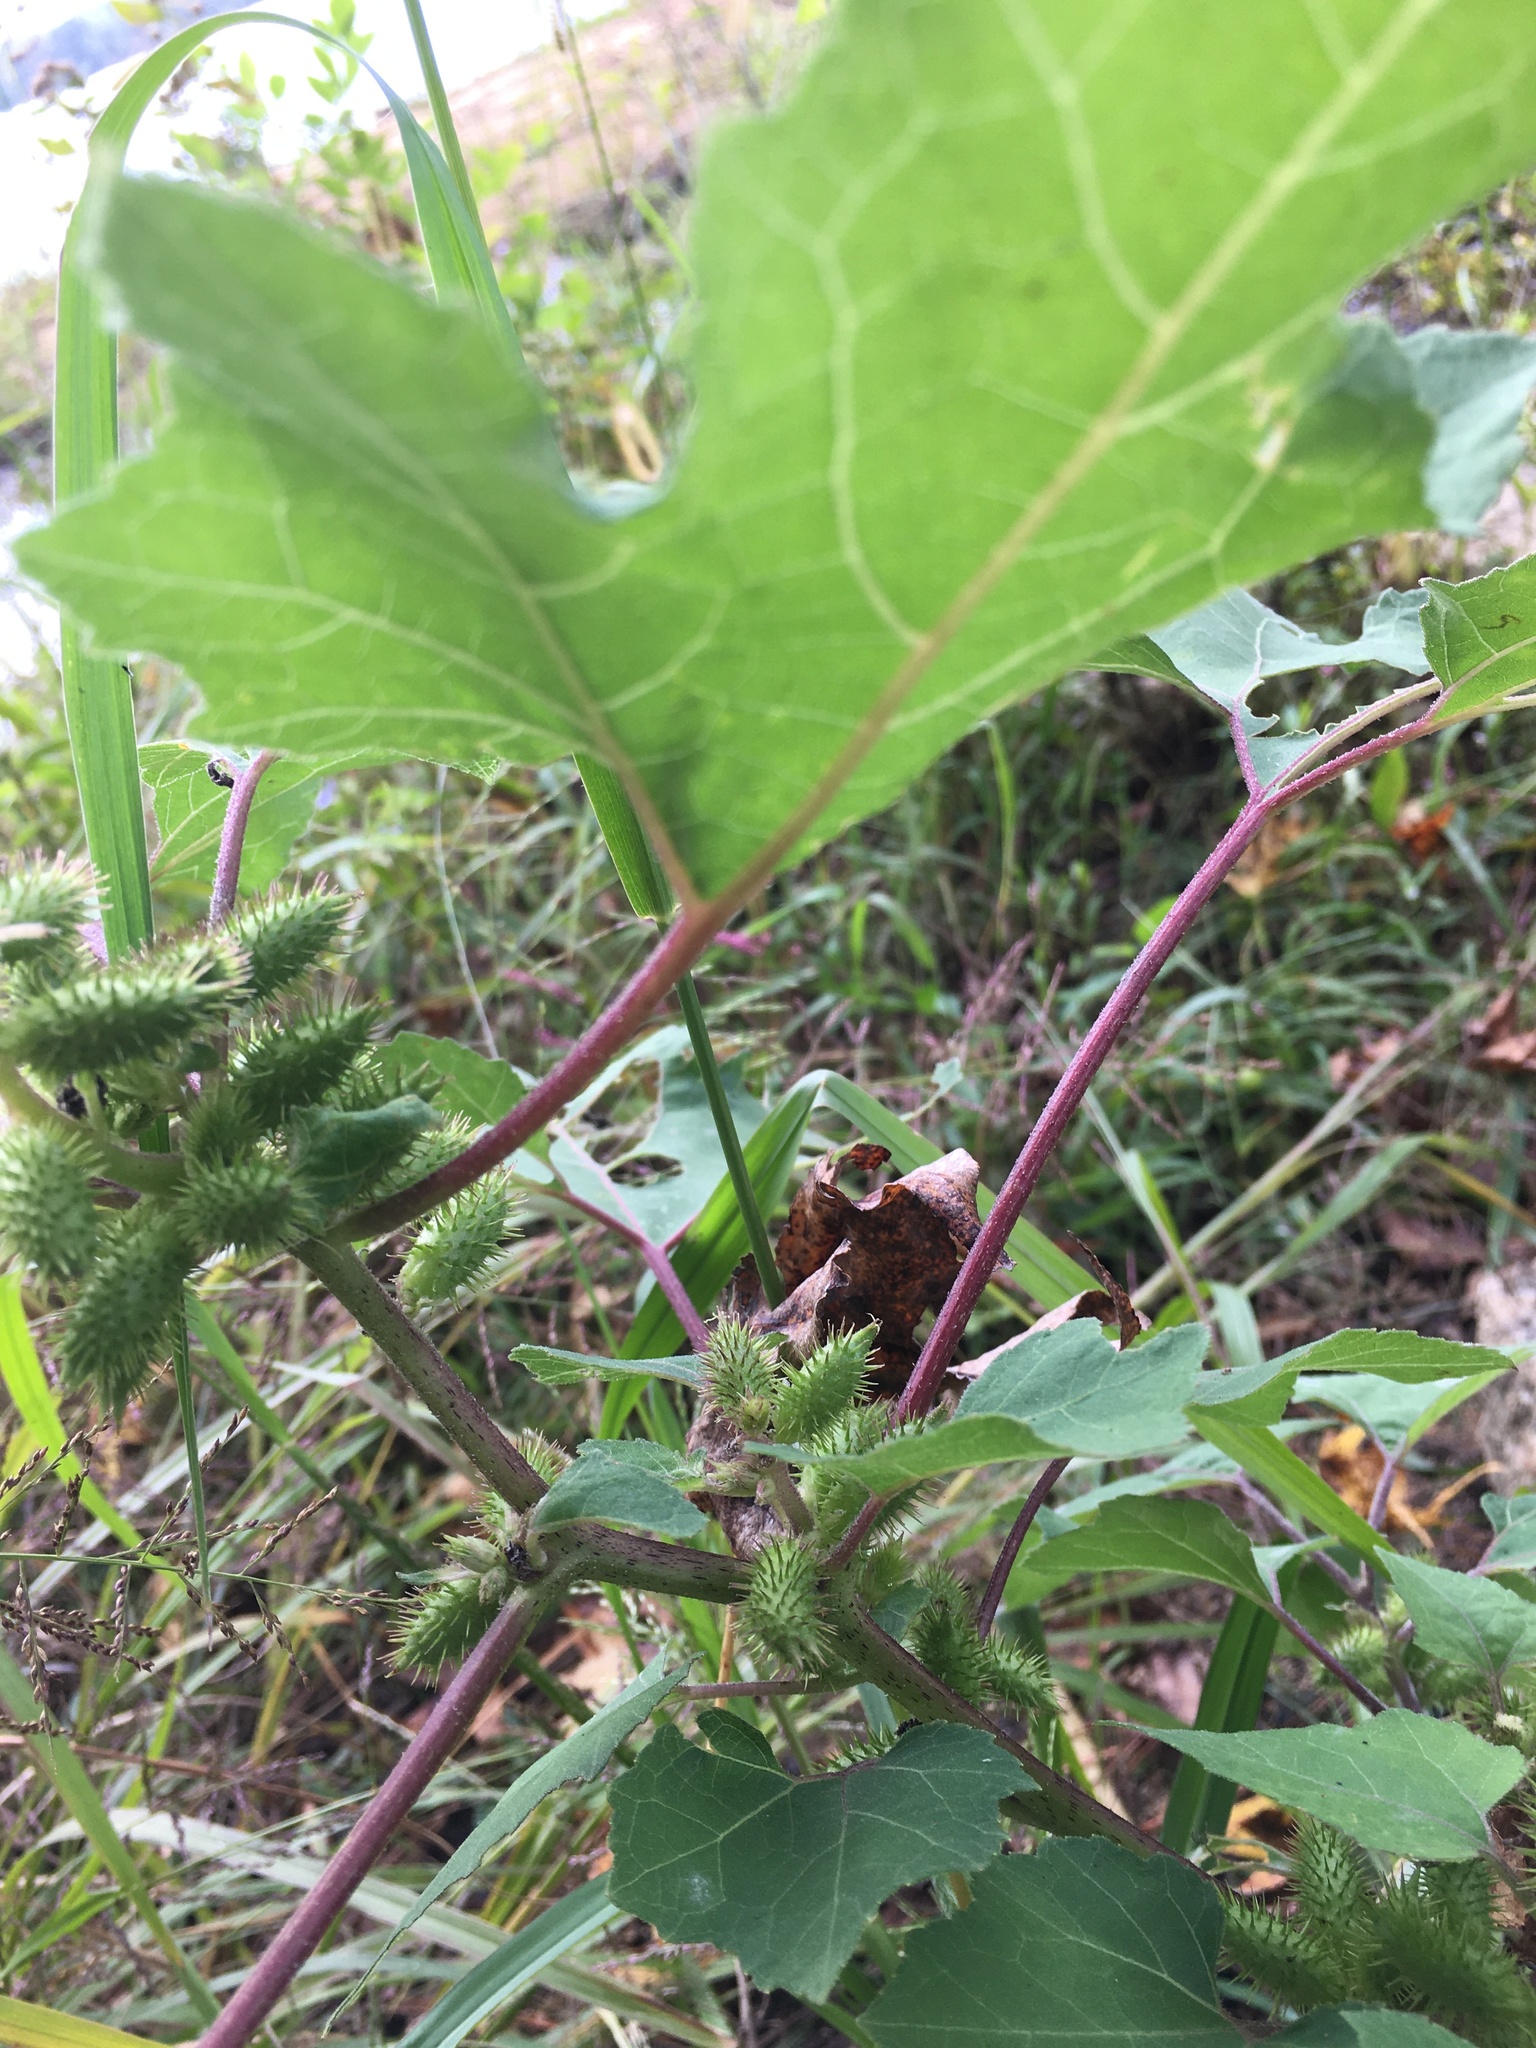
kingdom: Plantae
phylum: Tracheophyta
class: Magnoliopsida
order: Asterales
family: Asteraceae
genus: Xanthium
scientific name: Xanthium strumarium
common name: Rough cocklebur
